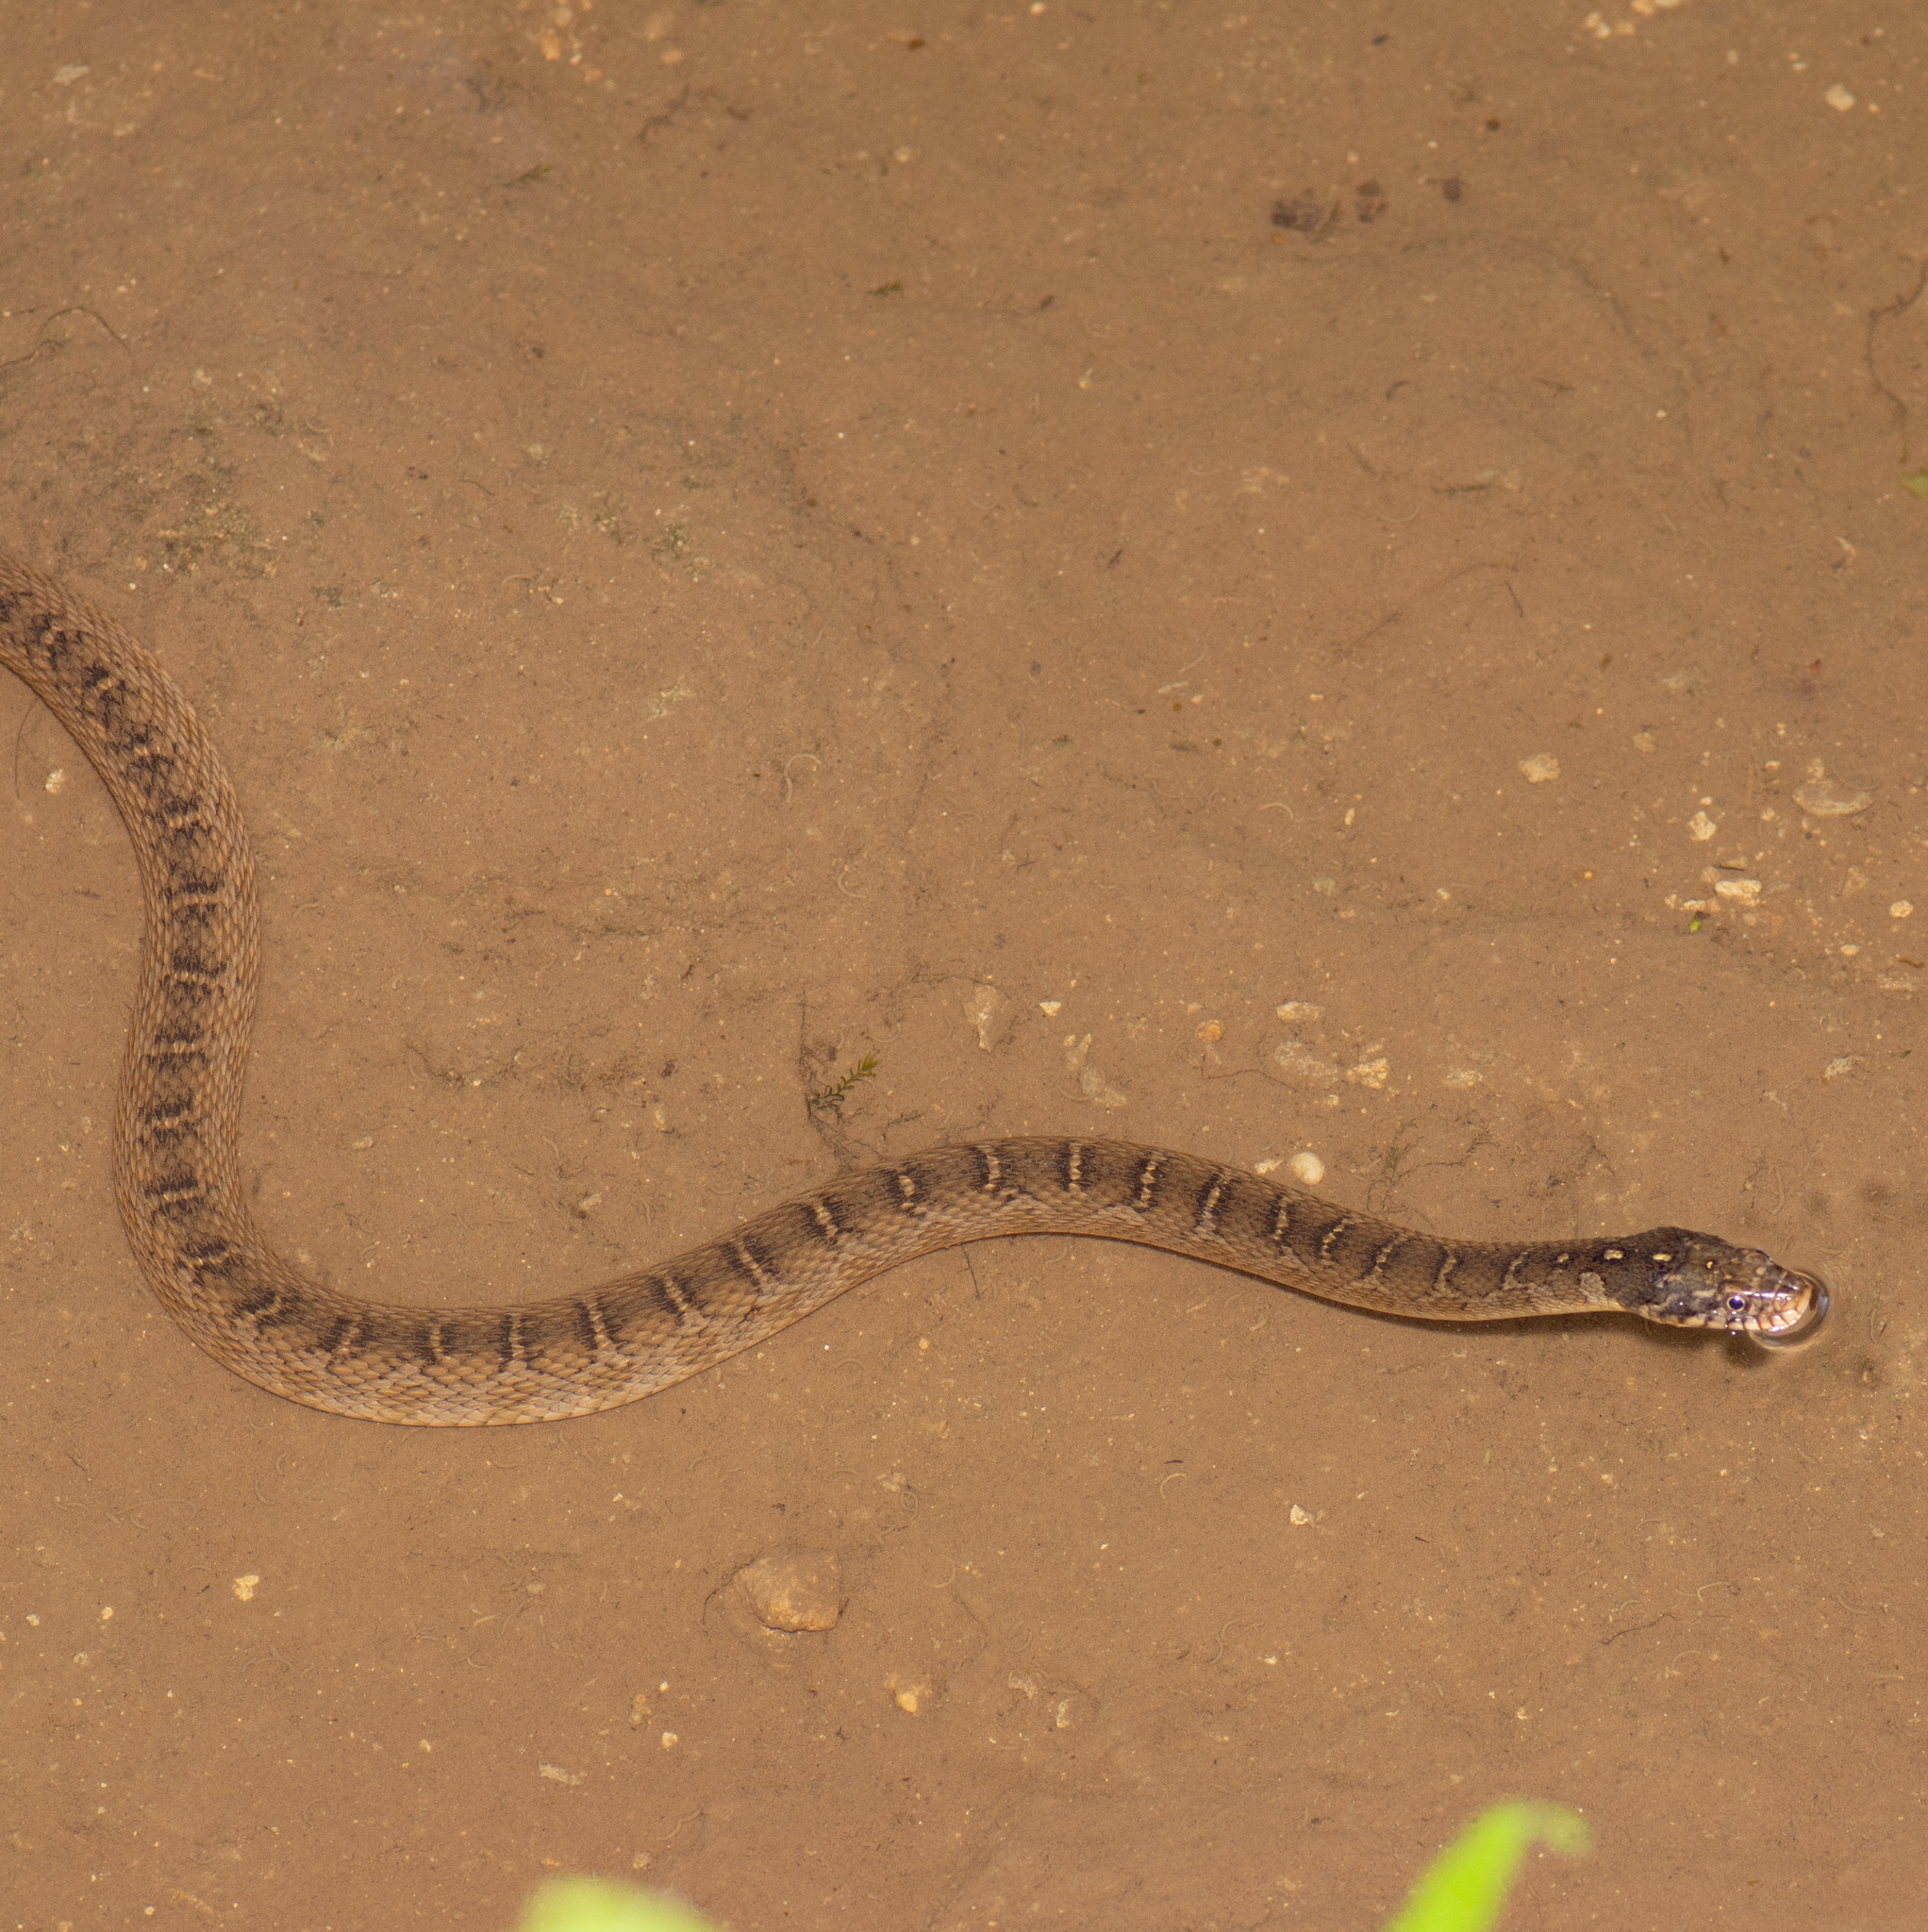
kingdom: Animalia
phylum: Chordata
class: Squamata
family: Colubridae
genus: Nerodia
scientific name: Nerodia erythrogaster
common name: Plainbelly water snake
